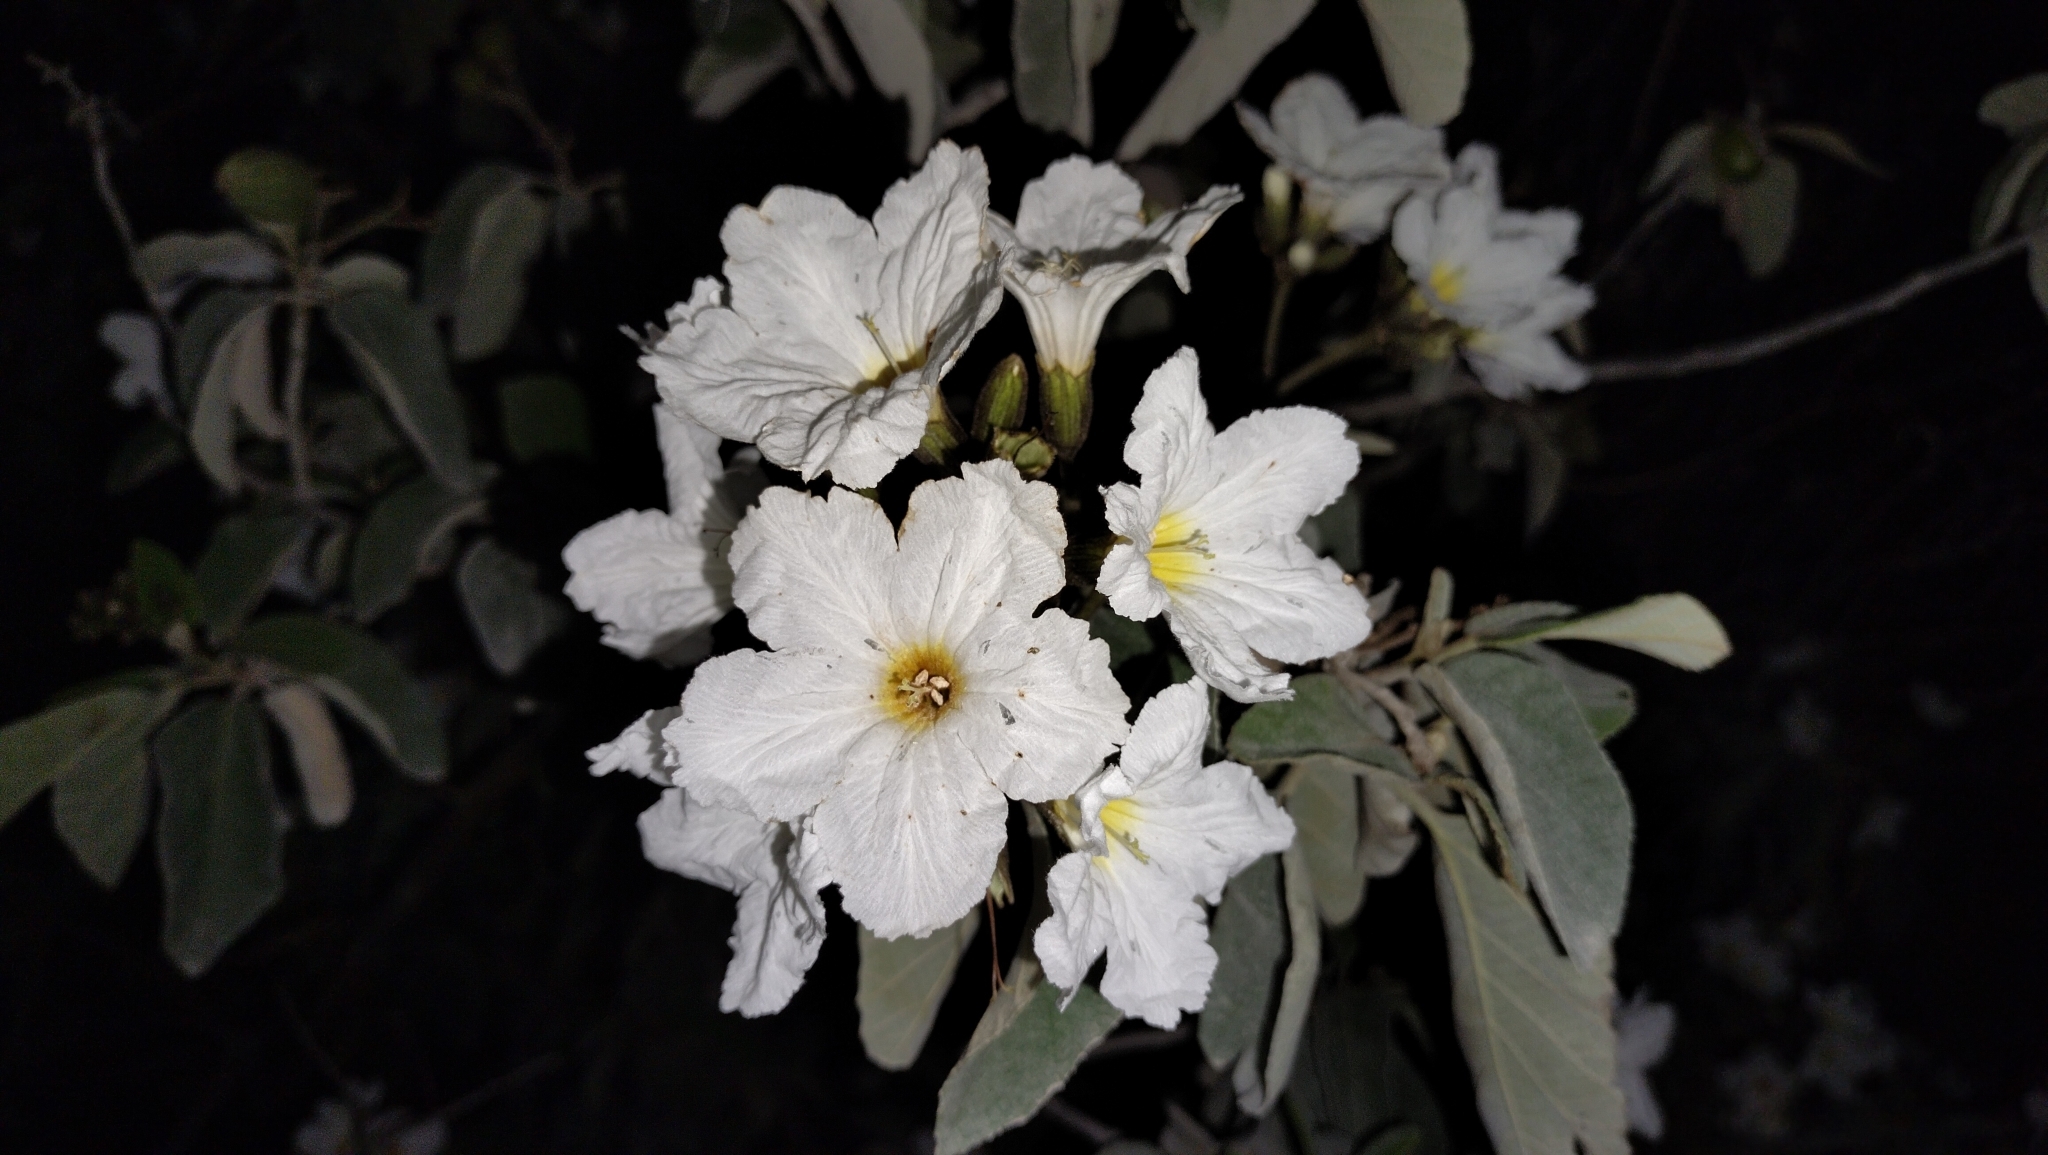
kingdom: Plantae
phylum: Tracheophyta
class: Magnoliopsida
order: Boraginales
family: Cordiaceae
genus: Cordia
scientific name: Cordia boissieri
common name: Mexican-olive
